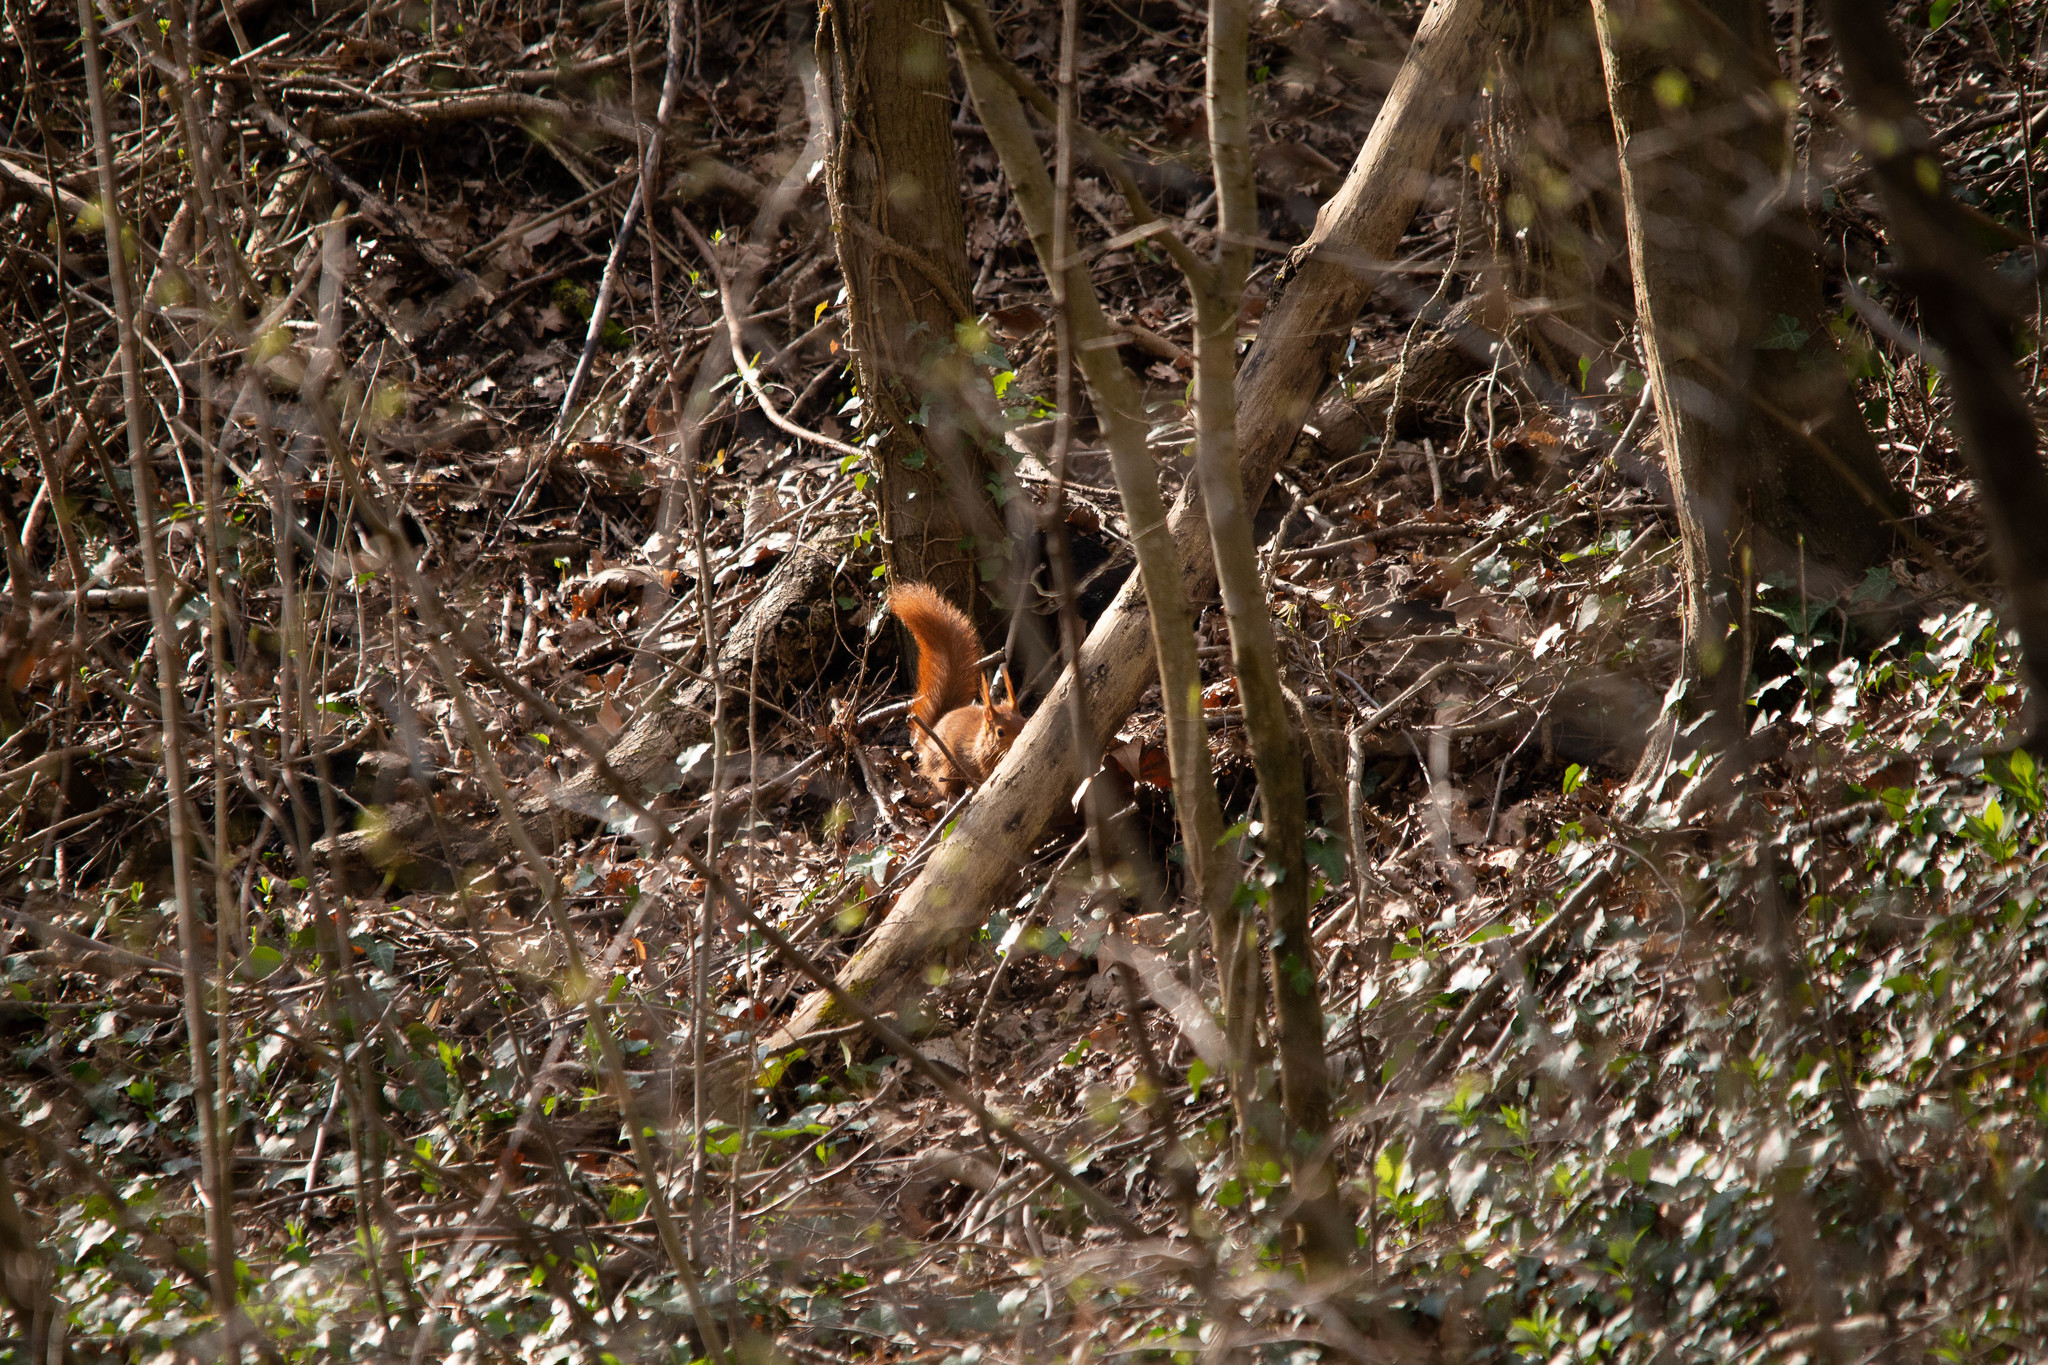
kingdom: Animalia
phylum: Chordata
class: Mammalia
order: Rodentia
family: Sciuridae
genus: Sciurus
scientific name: Sciurus vulgaris
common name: Eurasian red squirrel
